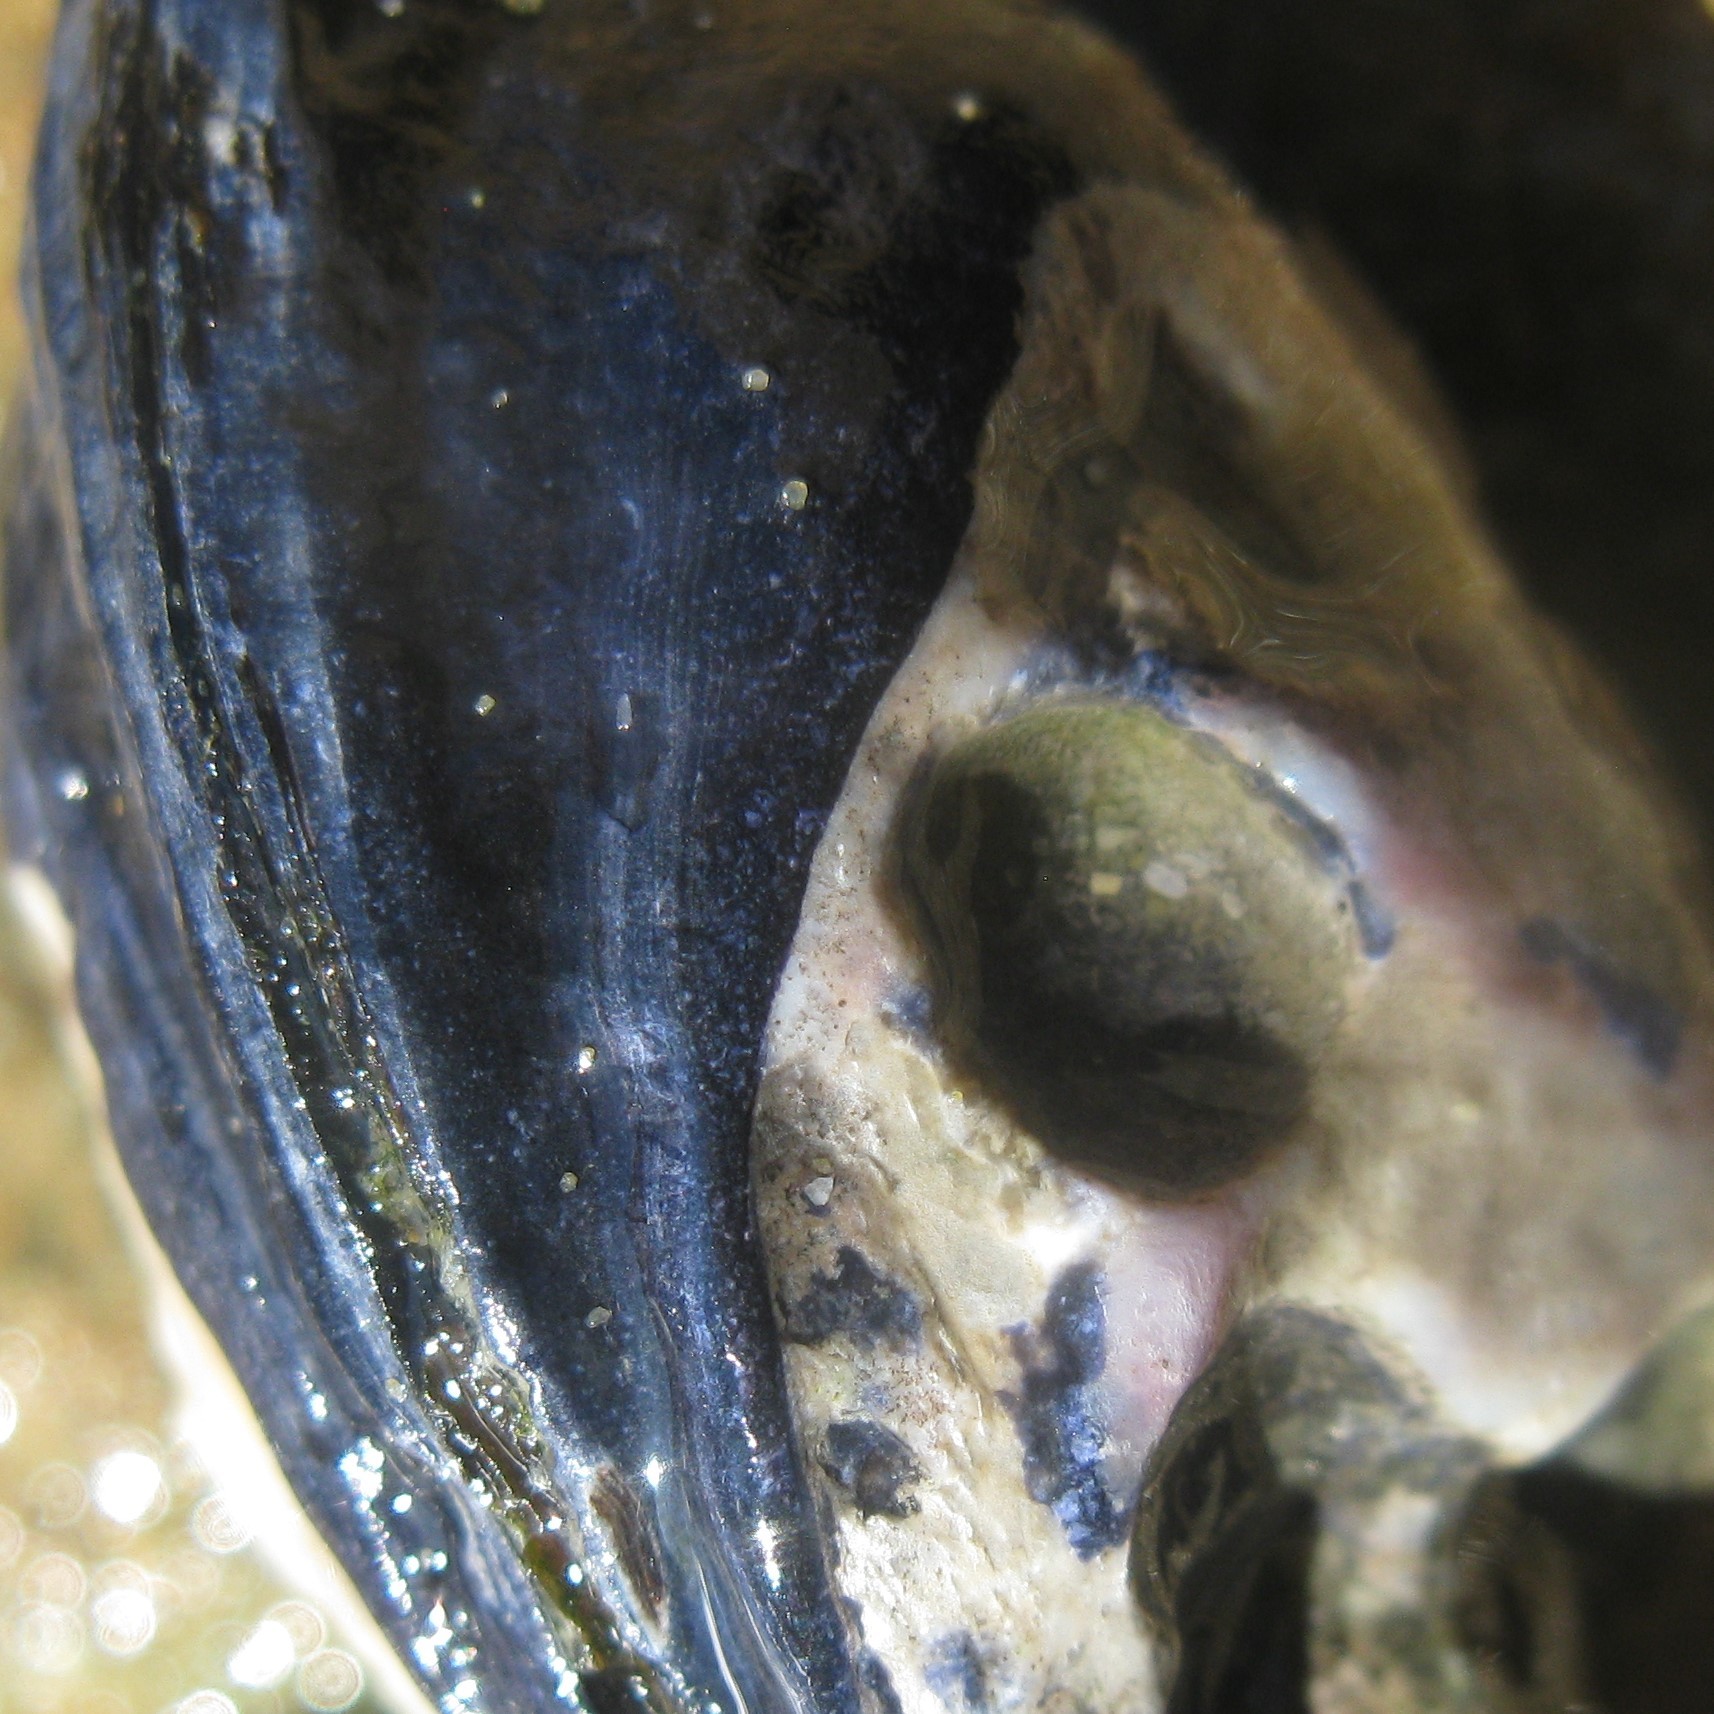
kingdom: Animalia
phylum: Mollusca
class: Bivalvia
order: Mytilida
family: Mytilidae
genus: Mytilus
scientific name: Mytilus planulatus
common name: Australian mussel
